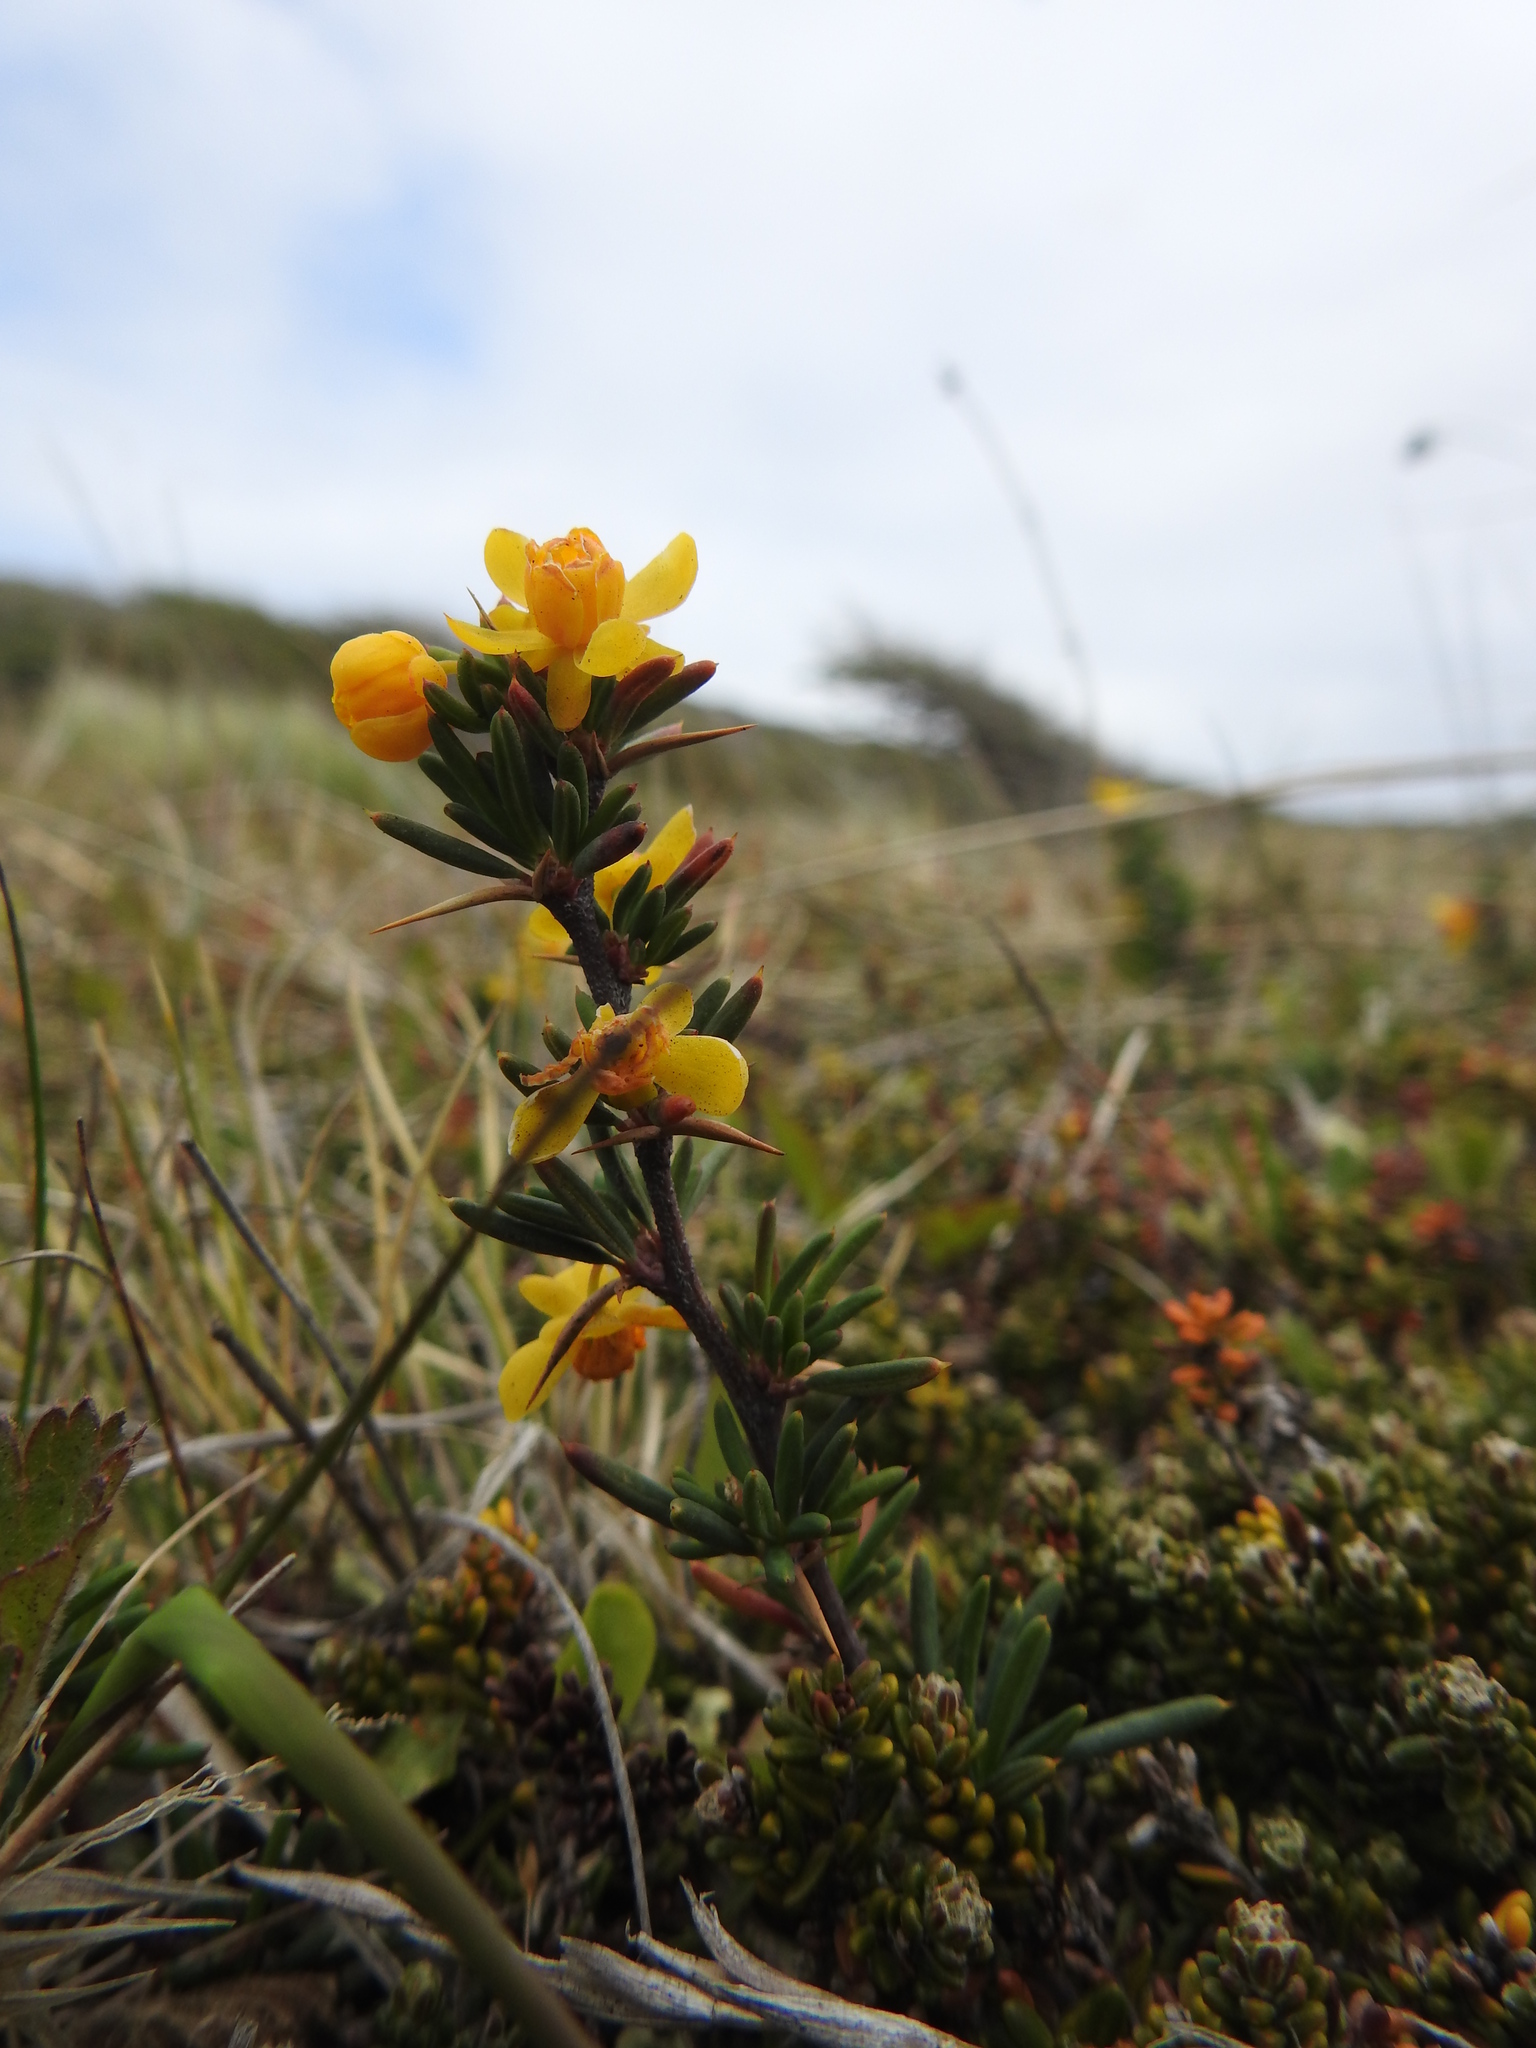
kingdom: Plantae
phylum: Tracheophyta
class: Magnoliopsida
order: Ranunculales
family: Berberidaceae
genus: Berberis
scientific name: Berberis empetrifolia
